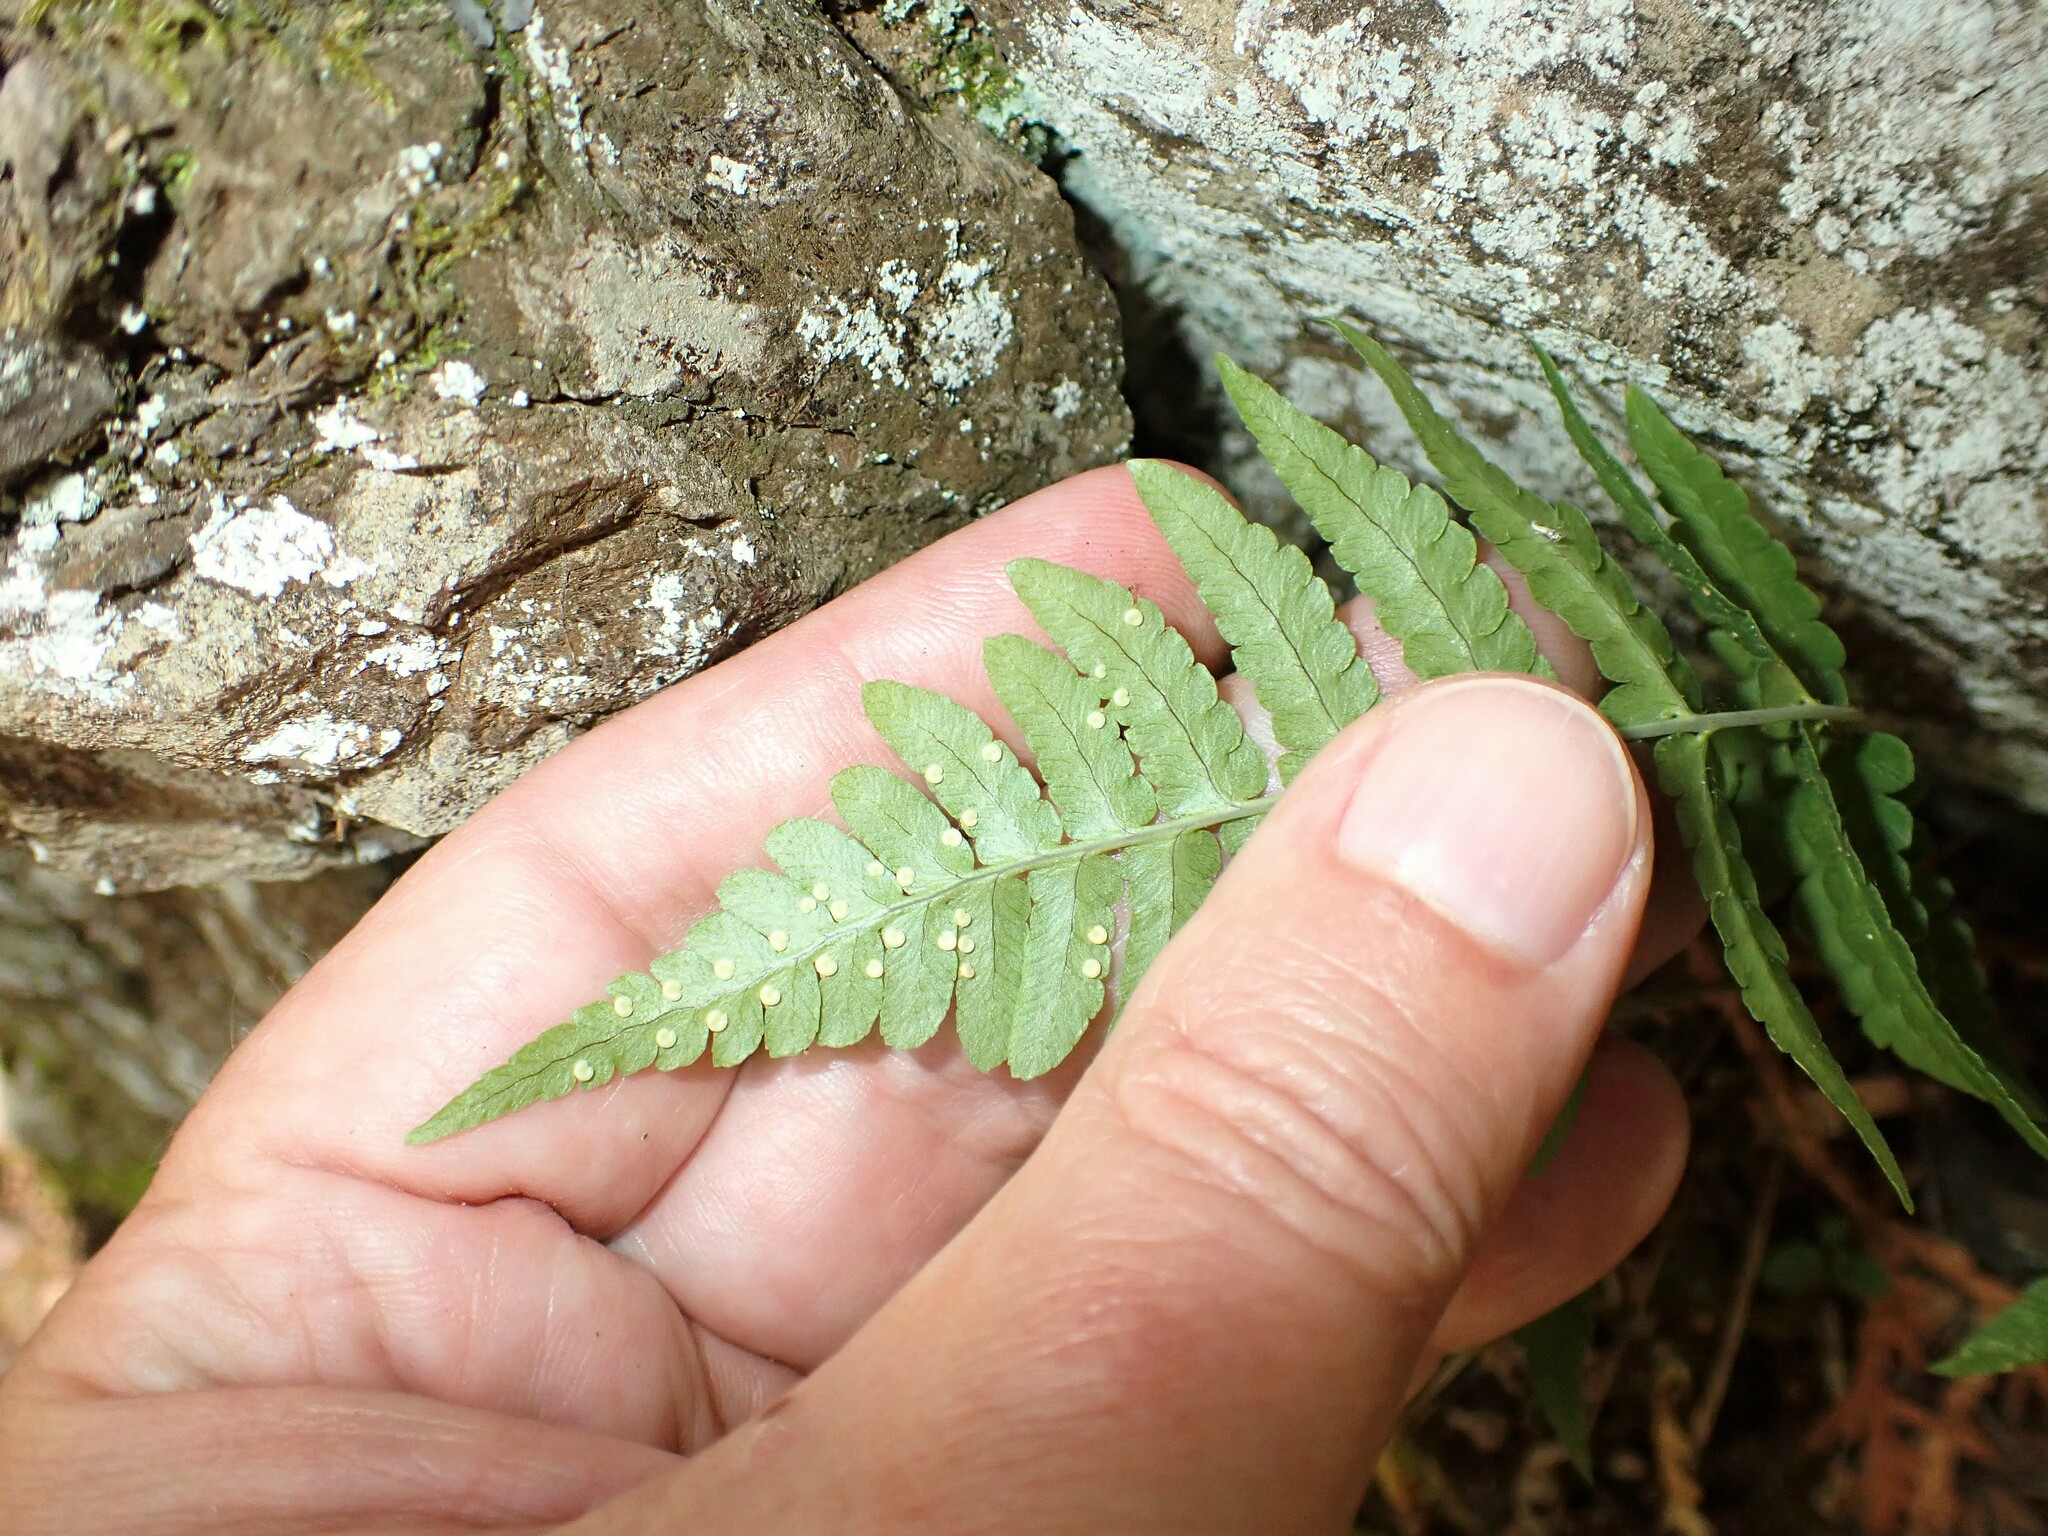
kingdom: Plantae
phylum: Tracheophyta
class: Polypodiopsida
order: Polypodiales
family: Dryopteridaceae
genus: Dryopteris
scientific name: Dryopteris marginalis
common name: Marginal wood fern
